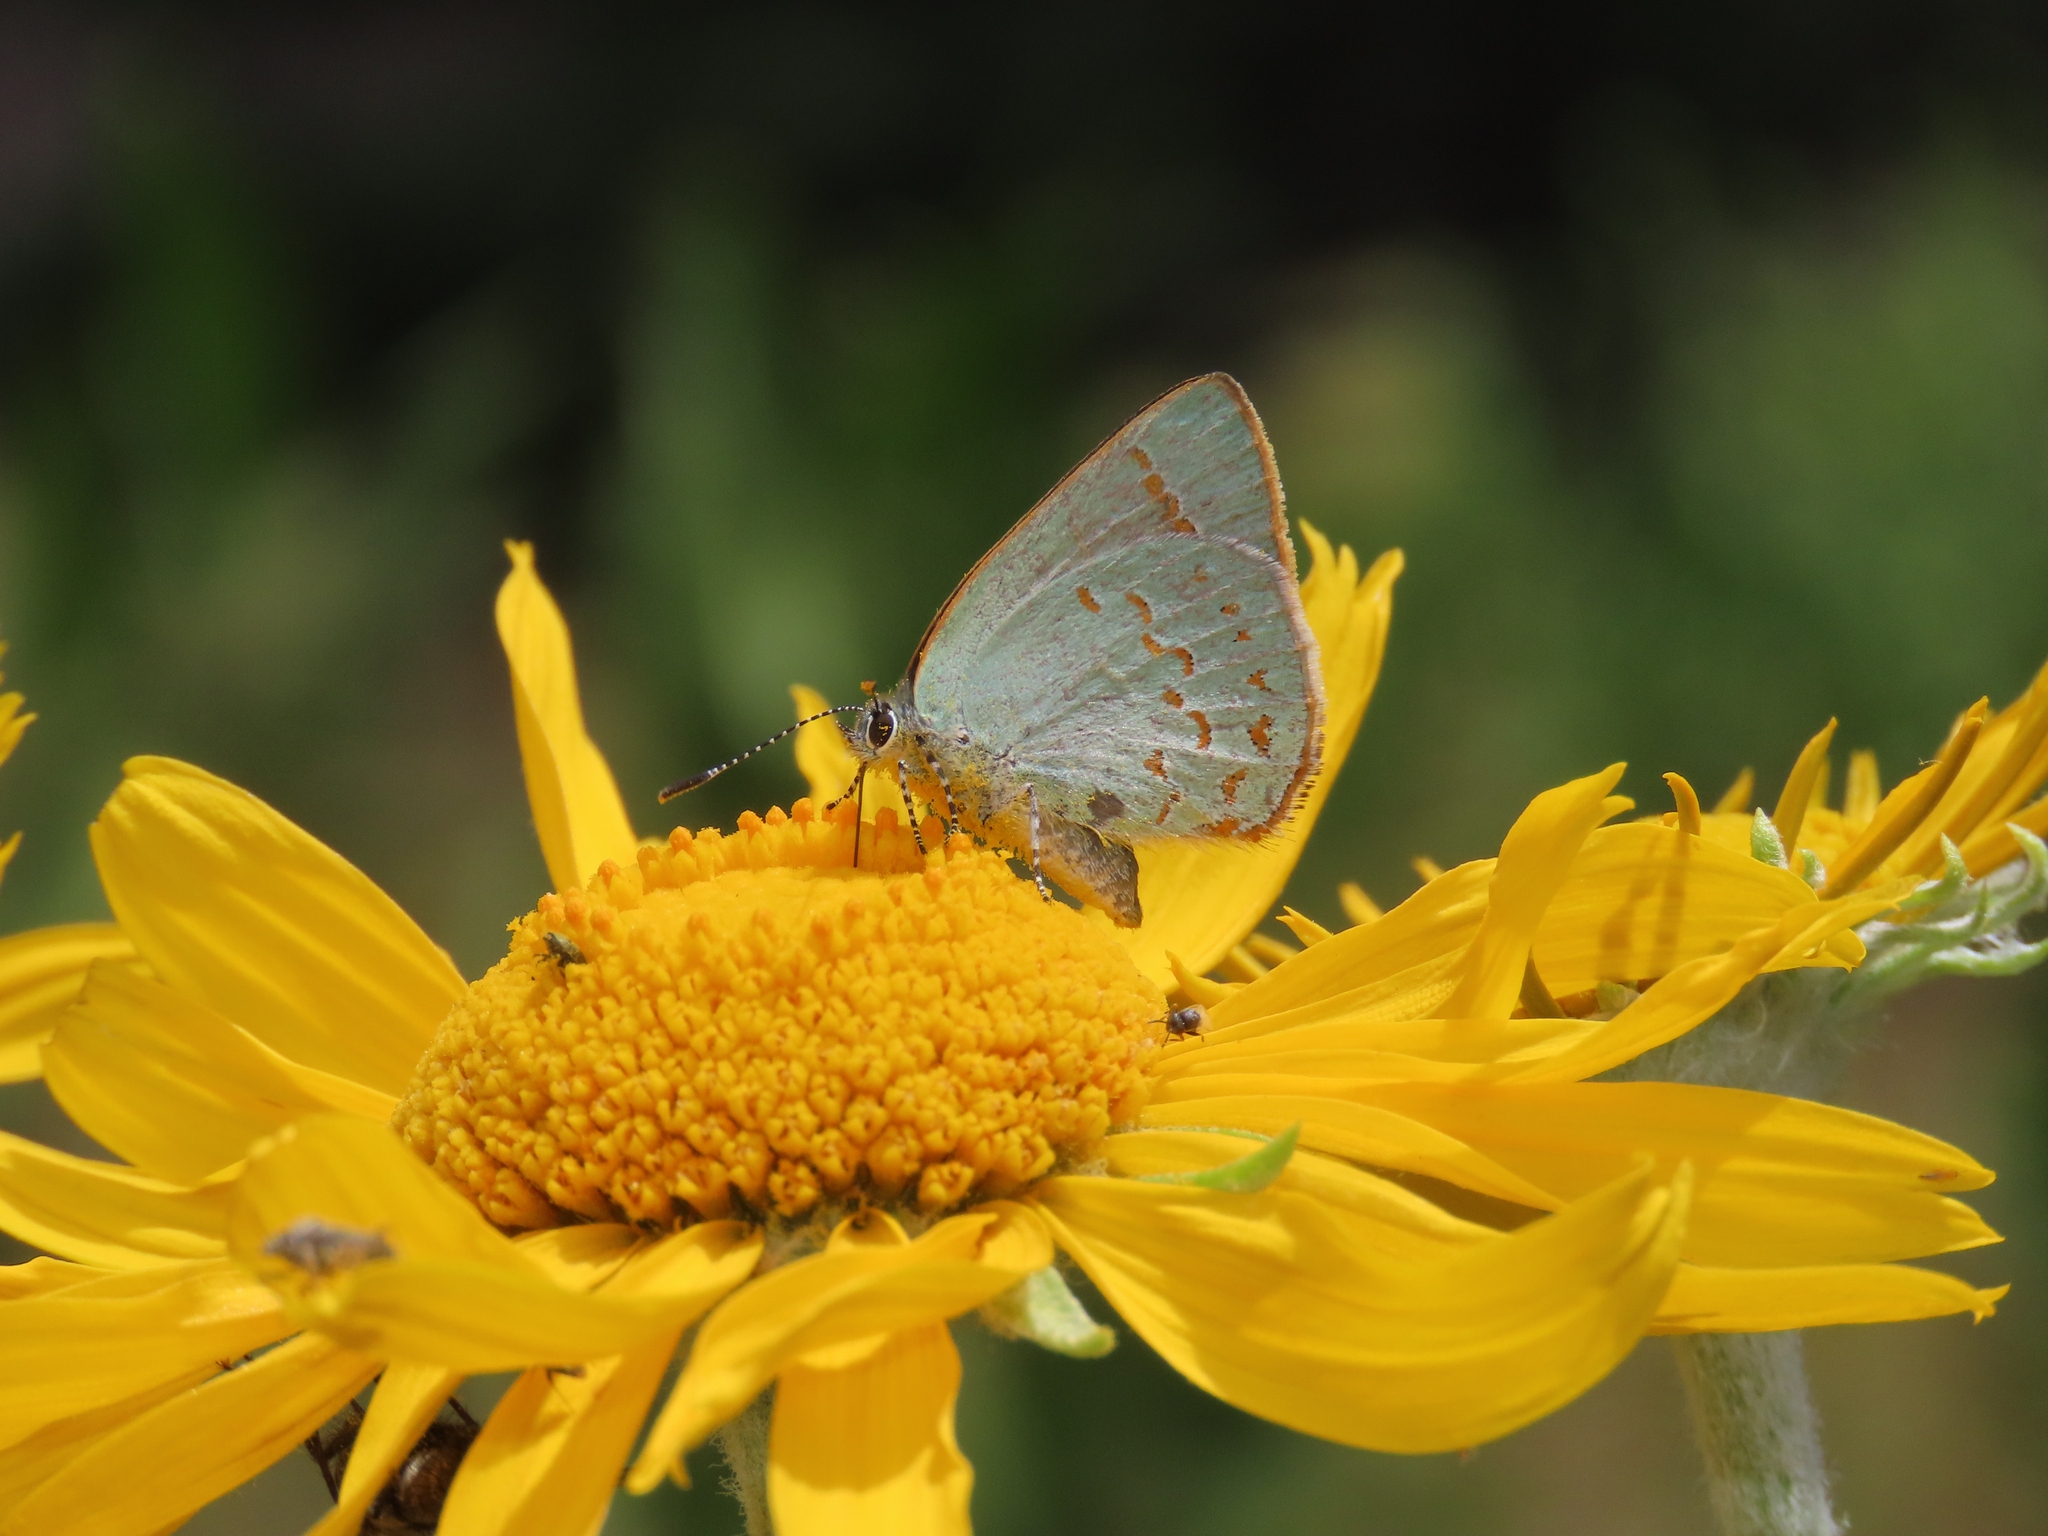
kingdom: Animalia
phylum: Arthropoda
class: Insecta
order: Lepidoptera
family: Lycaenidae
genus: Erora
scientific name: Erora quaderna
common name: Arizona hairstreak
